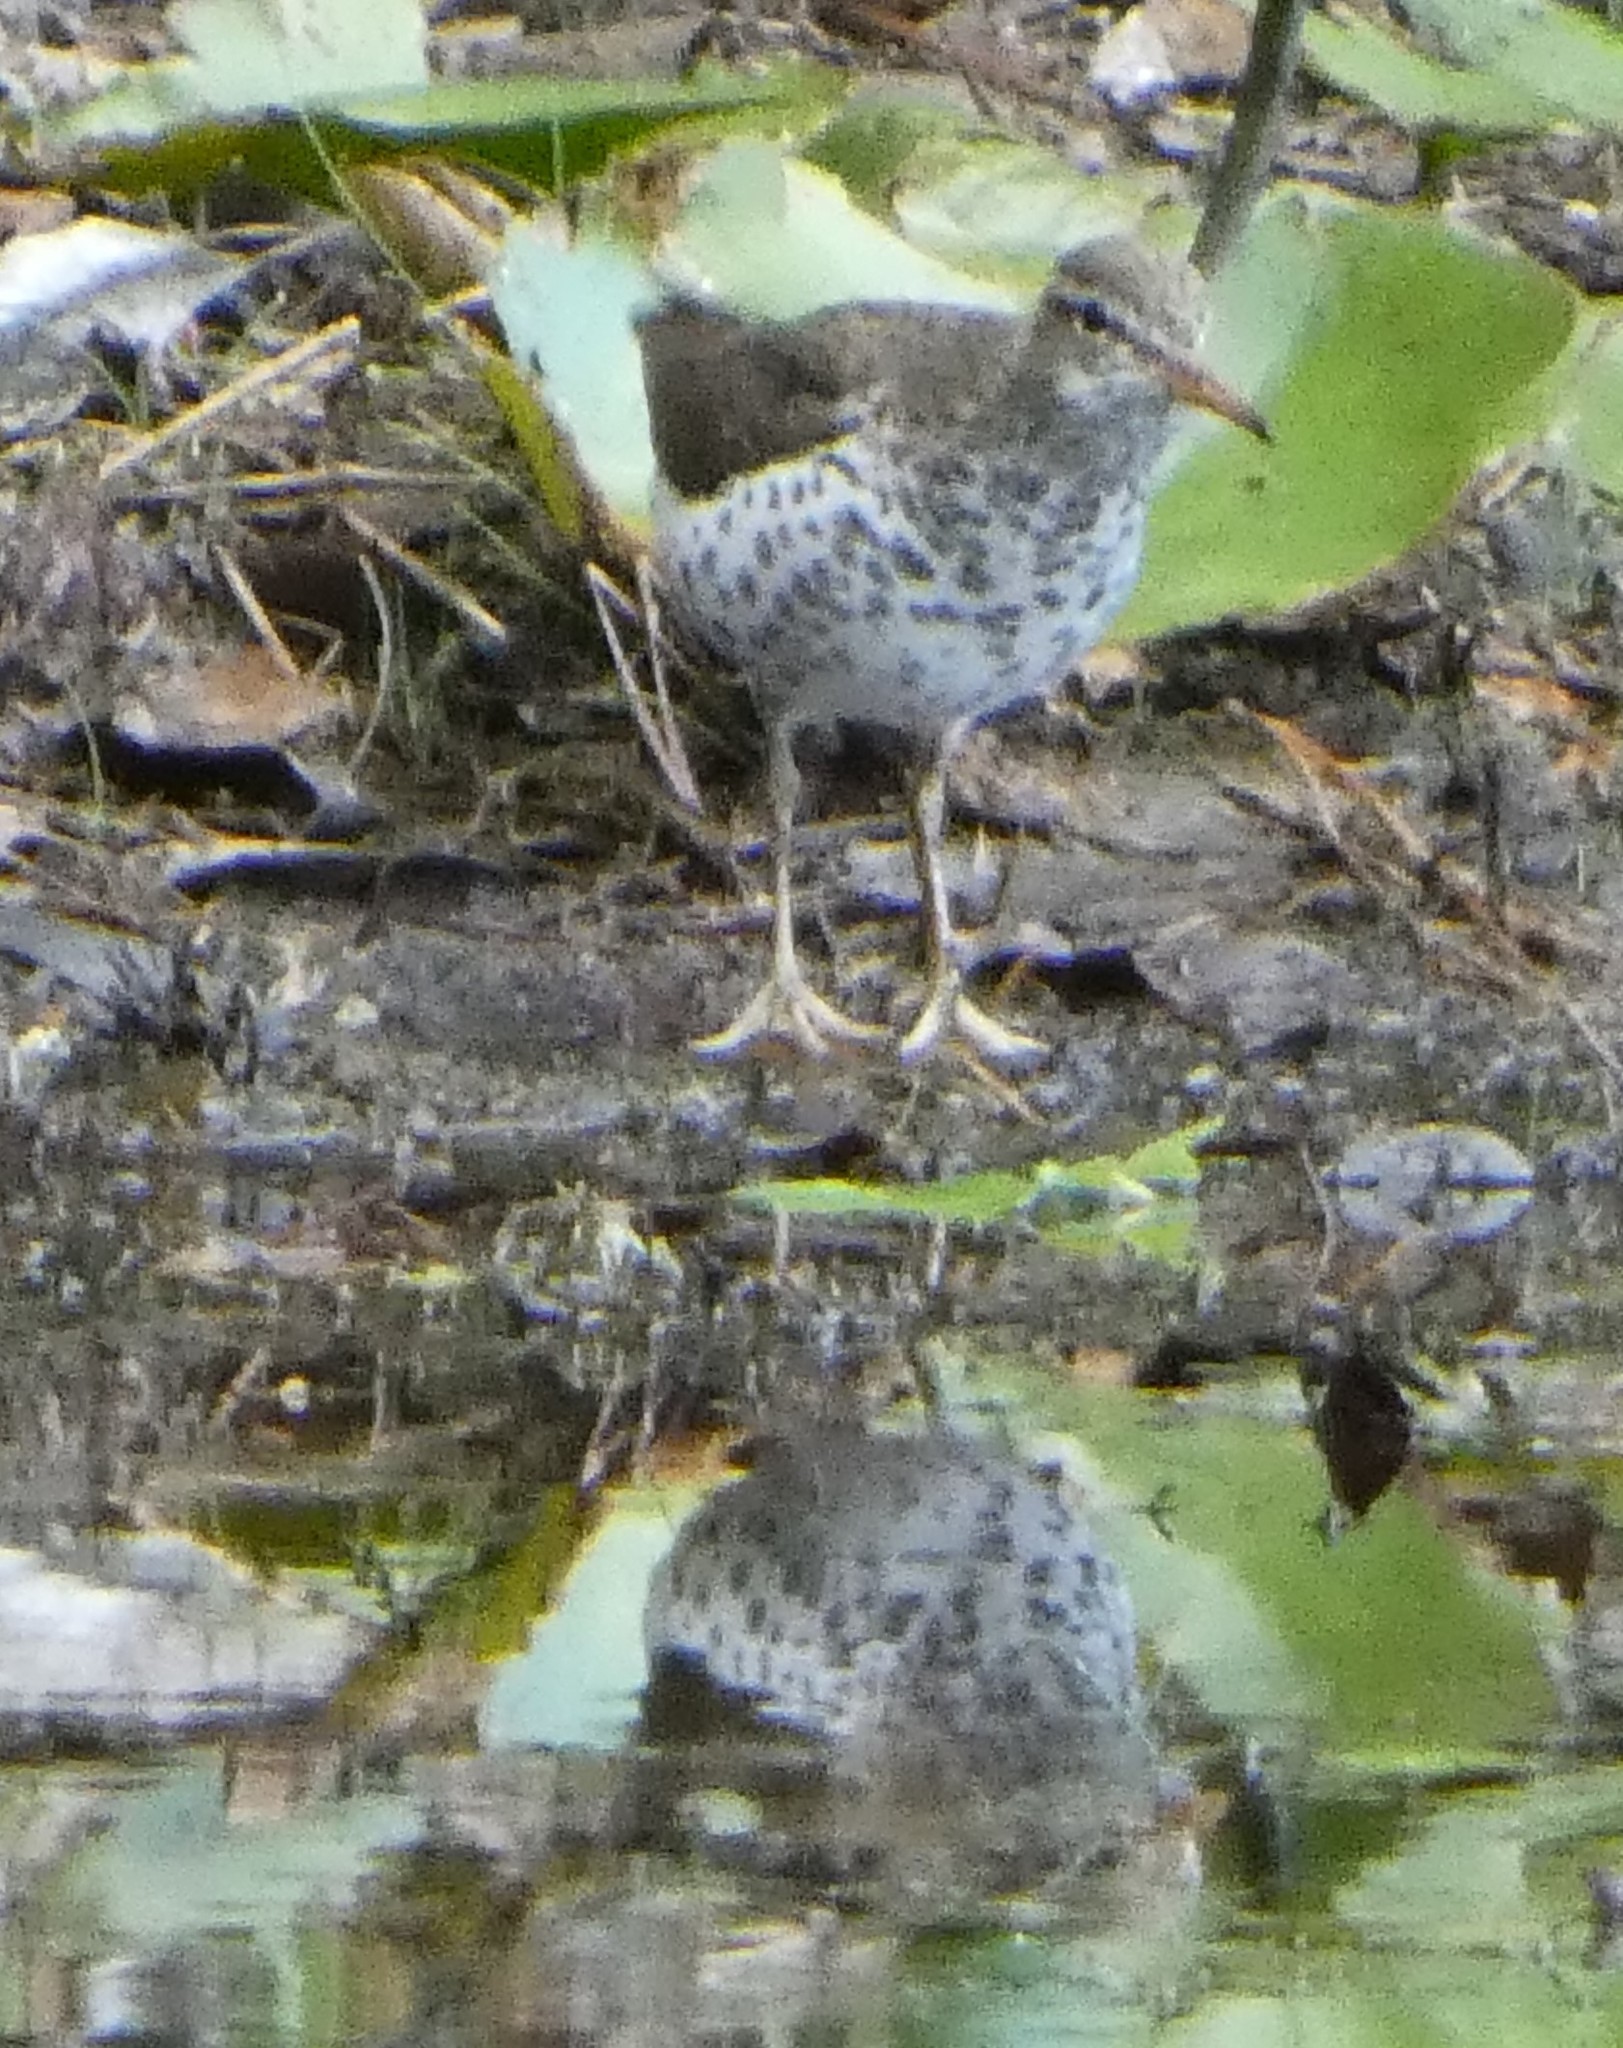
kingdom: Animalia
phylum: Chordata
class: Aves
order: Charadriiformes
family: Scolopacidae
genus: Actitis
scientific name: Actitis macularius
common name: Spotted sandpiper
